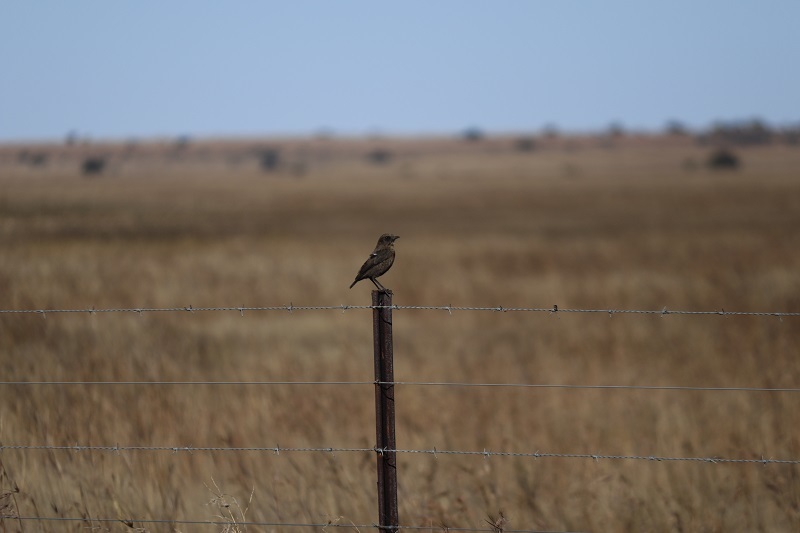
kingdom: Animalia
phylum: Chordata
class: Aves
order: Passeriformes
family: Muscicapidae
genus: Myrmecocichla
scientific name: Myrmecocichla formicivora
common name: Ant-eating chat
